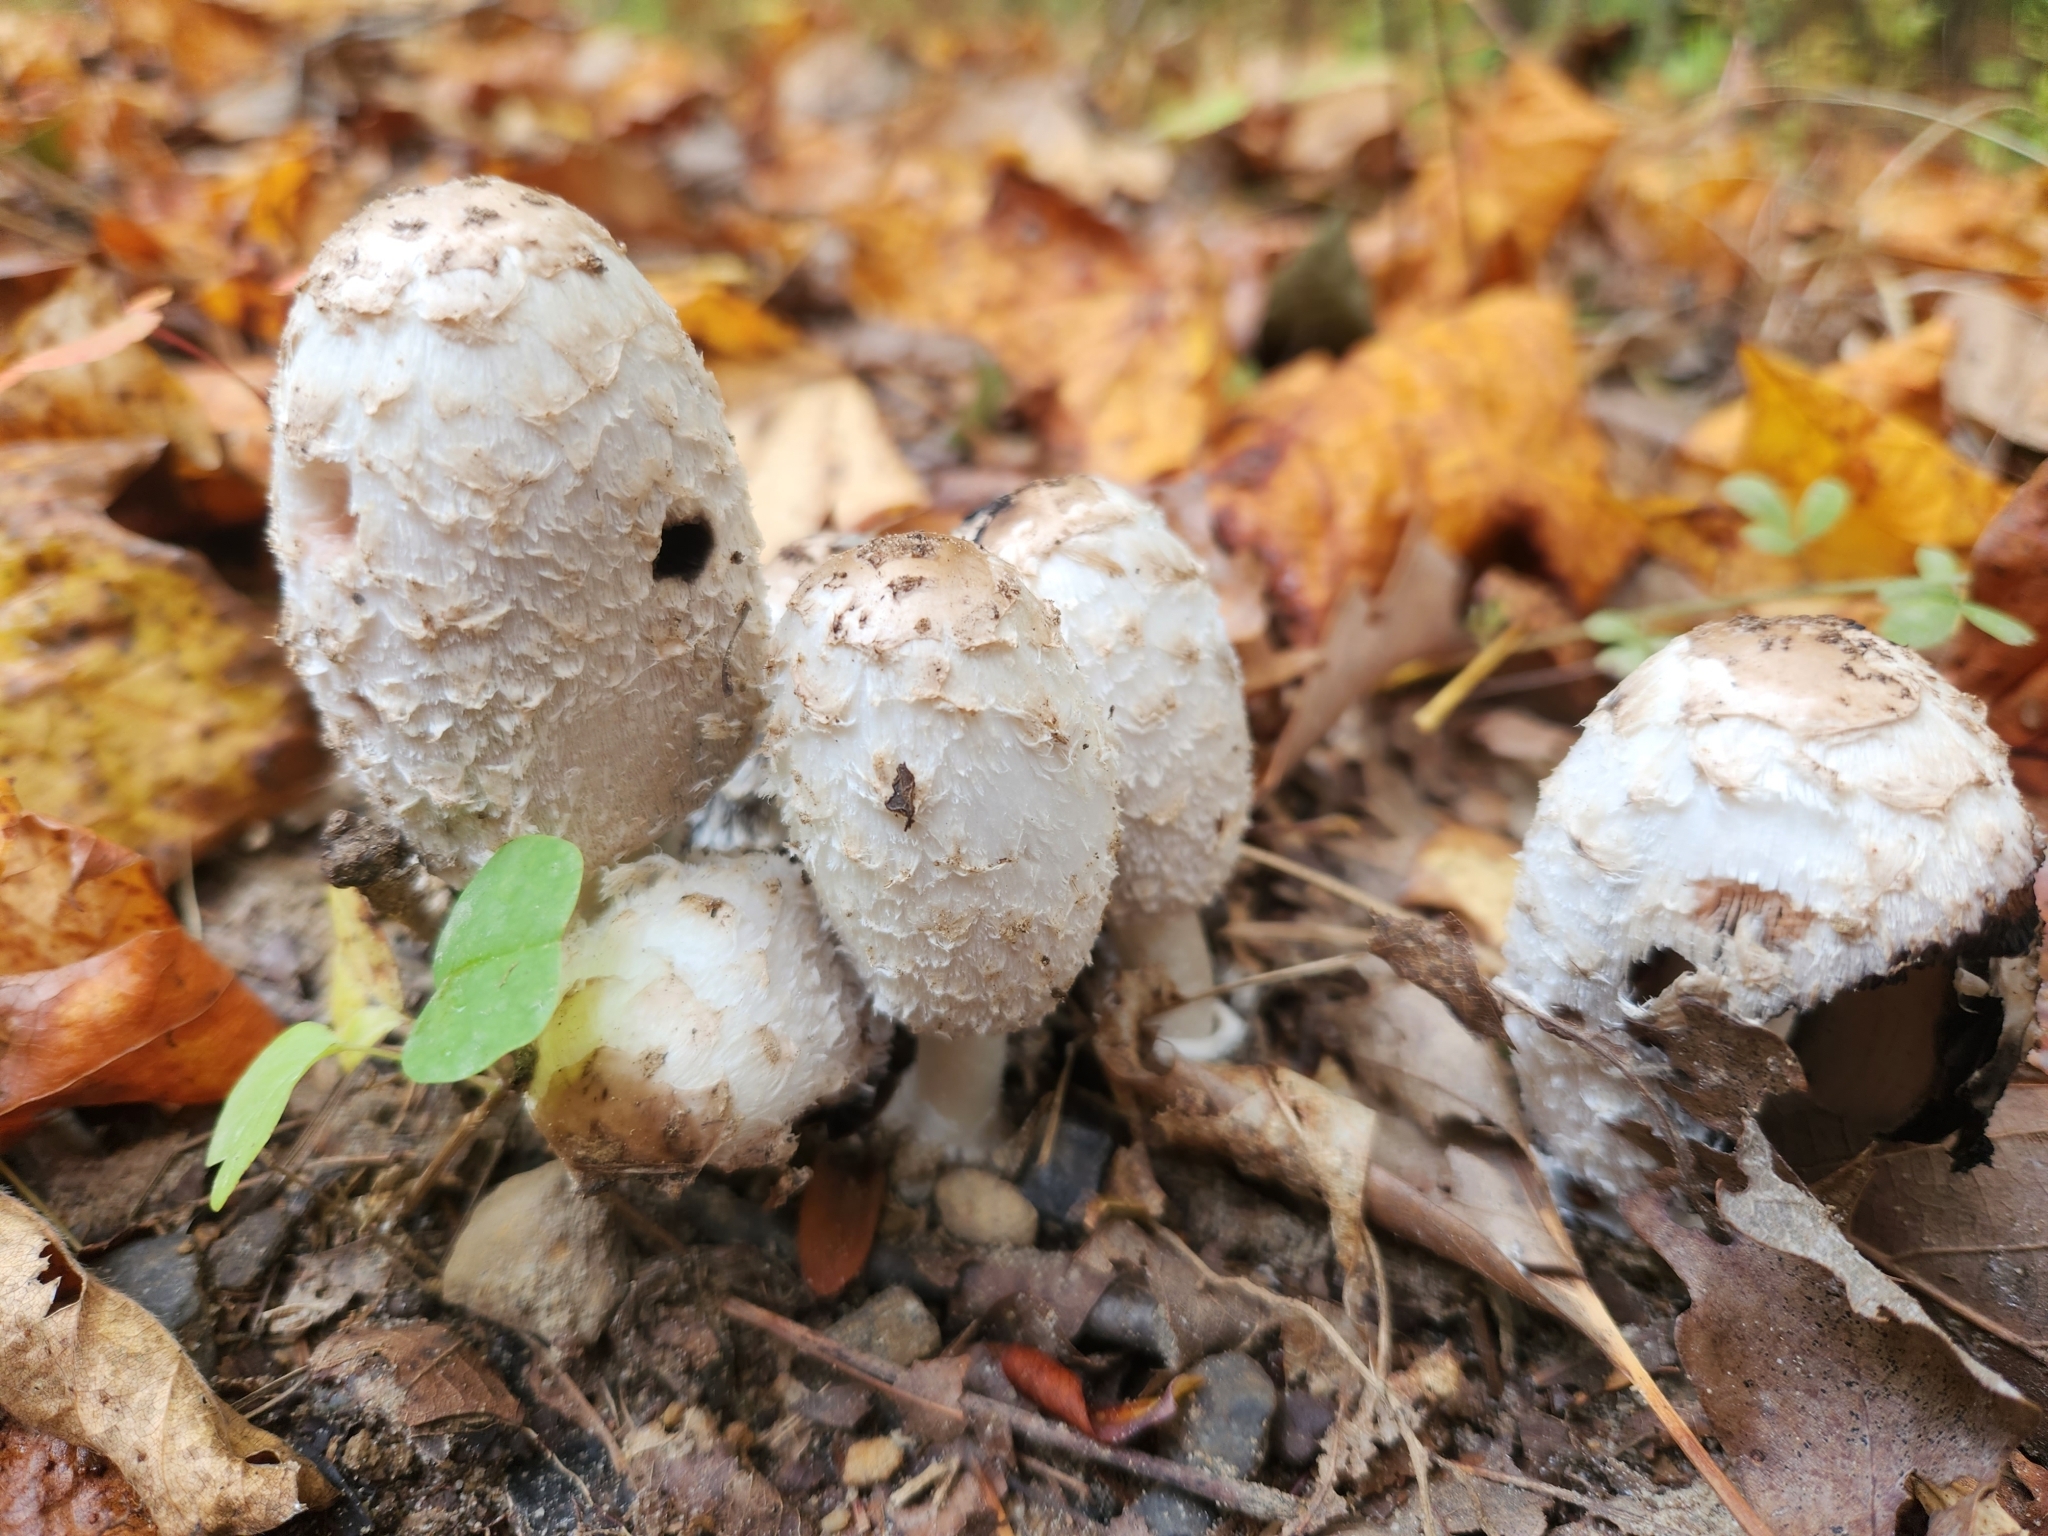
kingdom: Fungi
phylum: Basidiomycota
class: Agaricomycetes
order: Agaricales
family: Agaricaceae
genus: Coprinus
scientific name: Coprinus comatus
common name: Lawyer's wig
